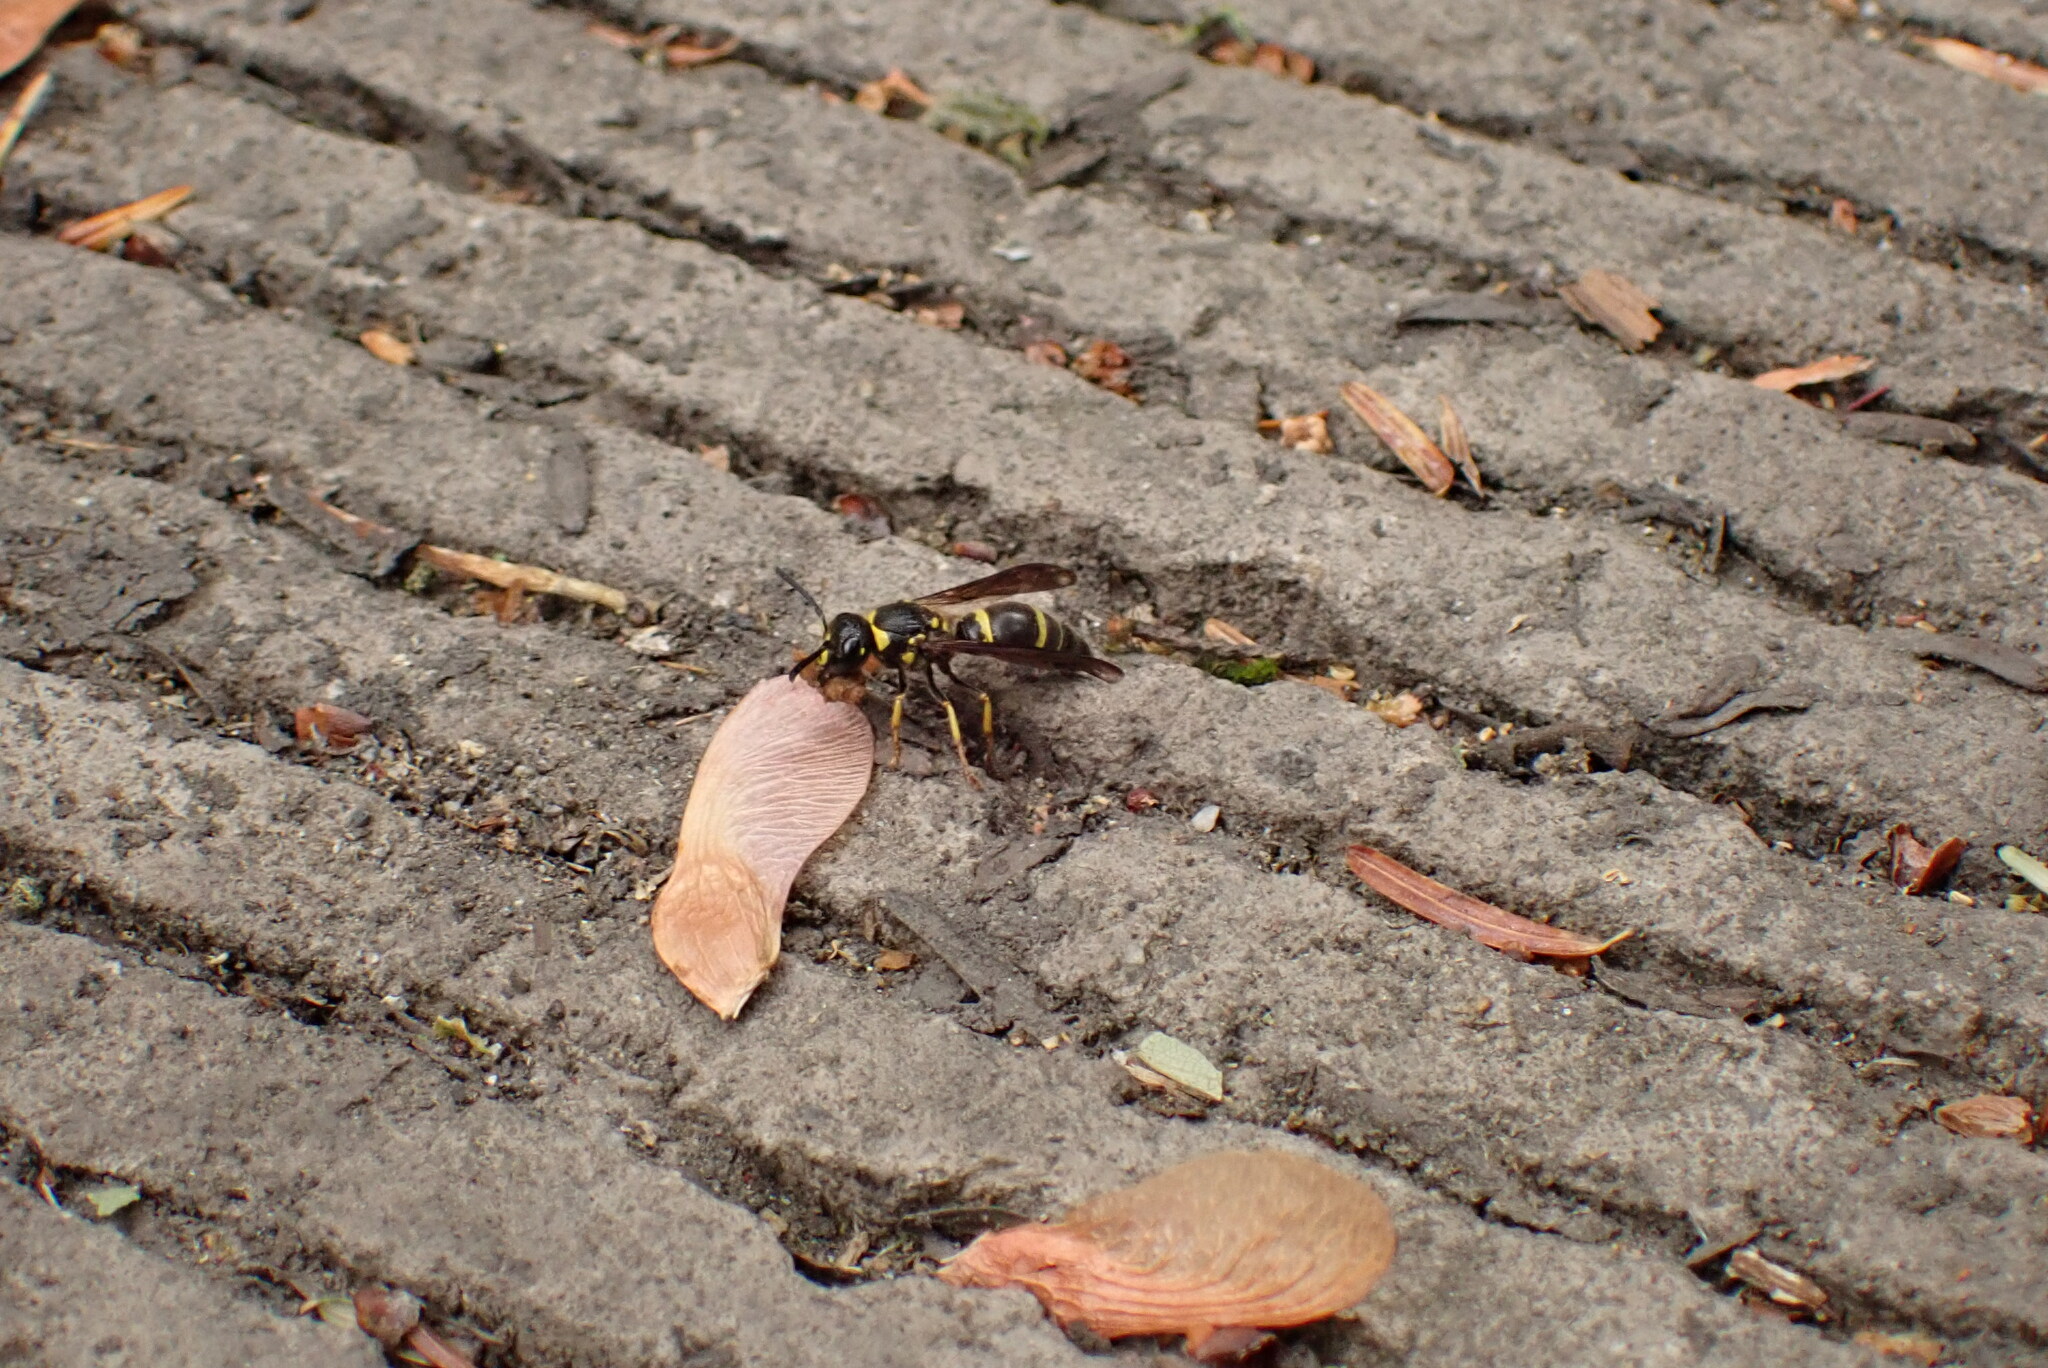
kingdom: Animalia
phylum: Arthropoda
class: Insecta
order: Hymenoptera
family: Vespidae
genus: Ancistrocerus
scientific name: Ancistrocerus adiabatus
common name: Bramble mason wasp
